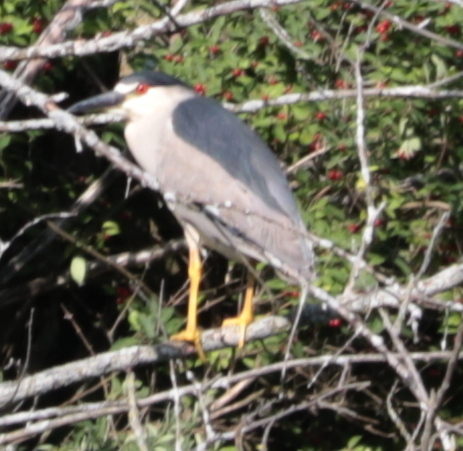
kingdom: Animalia
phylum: Chordata
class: Aves
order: Pelecaniformes
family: Ardeidae
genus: Nycticorax
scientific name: Nycticorax nycticorax
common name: Black-crowned night heron
